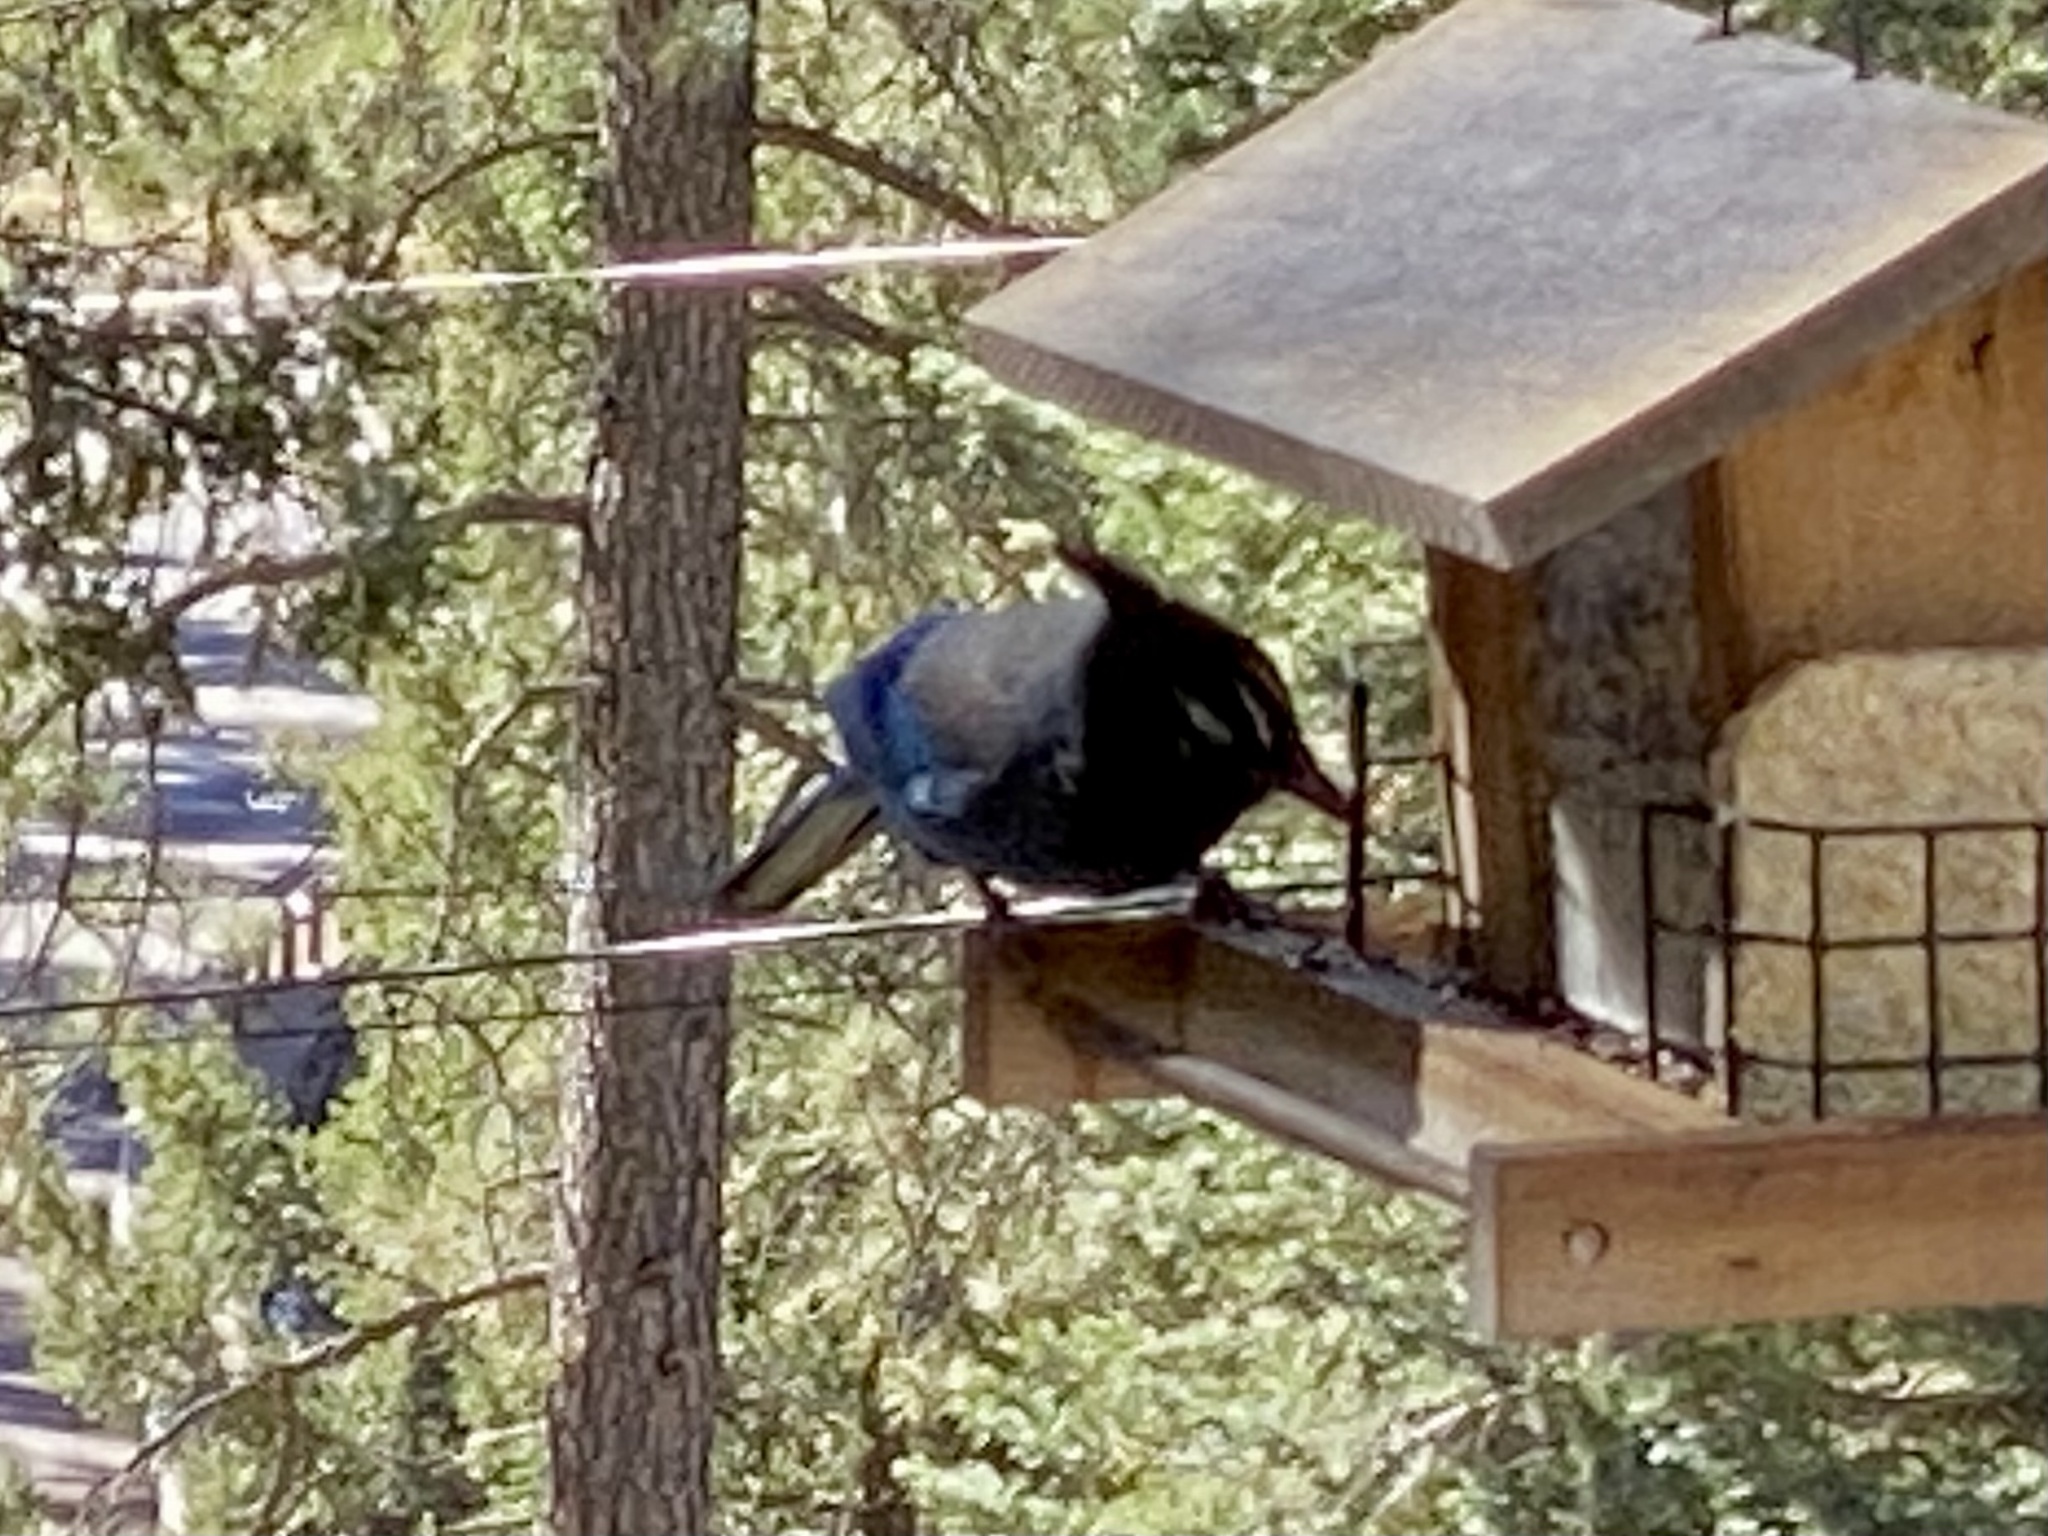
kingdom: Animalia
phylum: Chordata
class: Aves
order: Passeriformes
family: Corvidae
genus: Cyanocitta
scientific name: Cyanocitta stelleri
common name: Steller's jay
